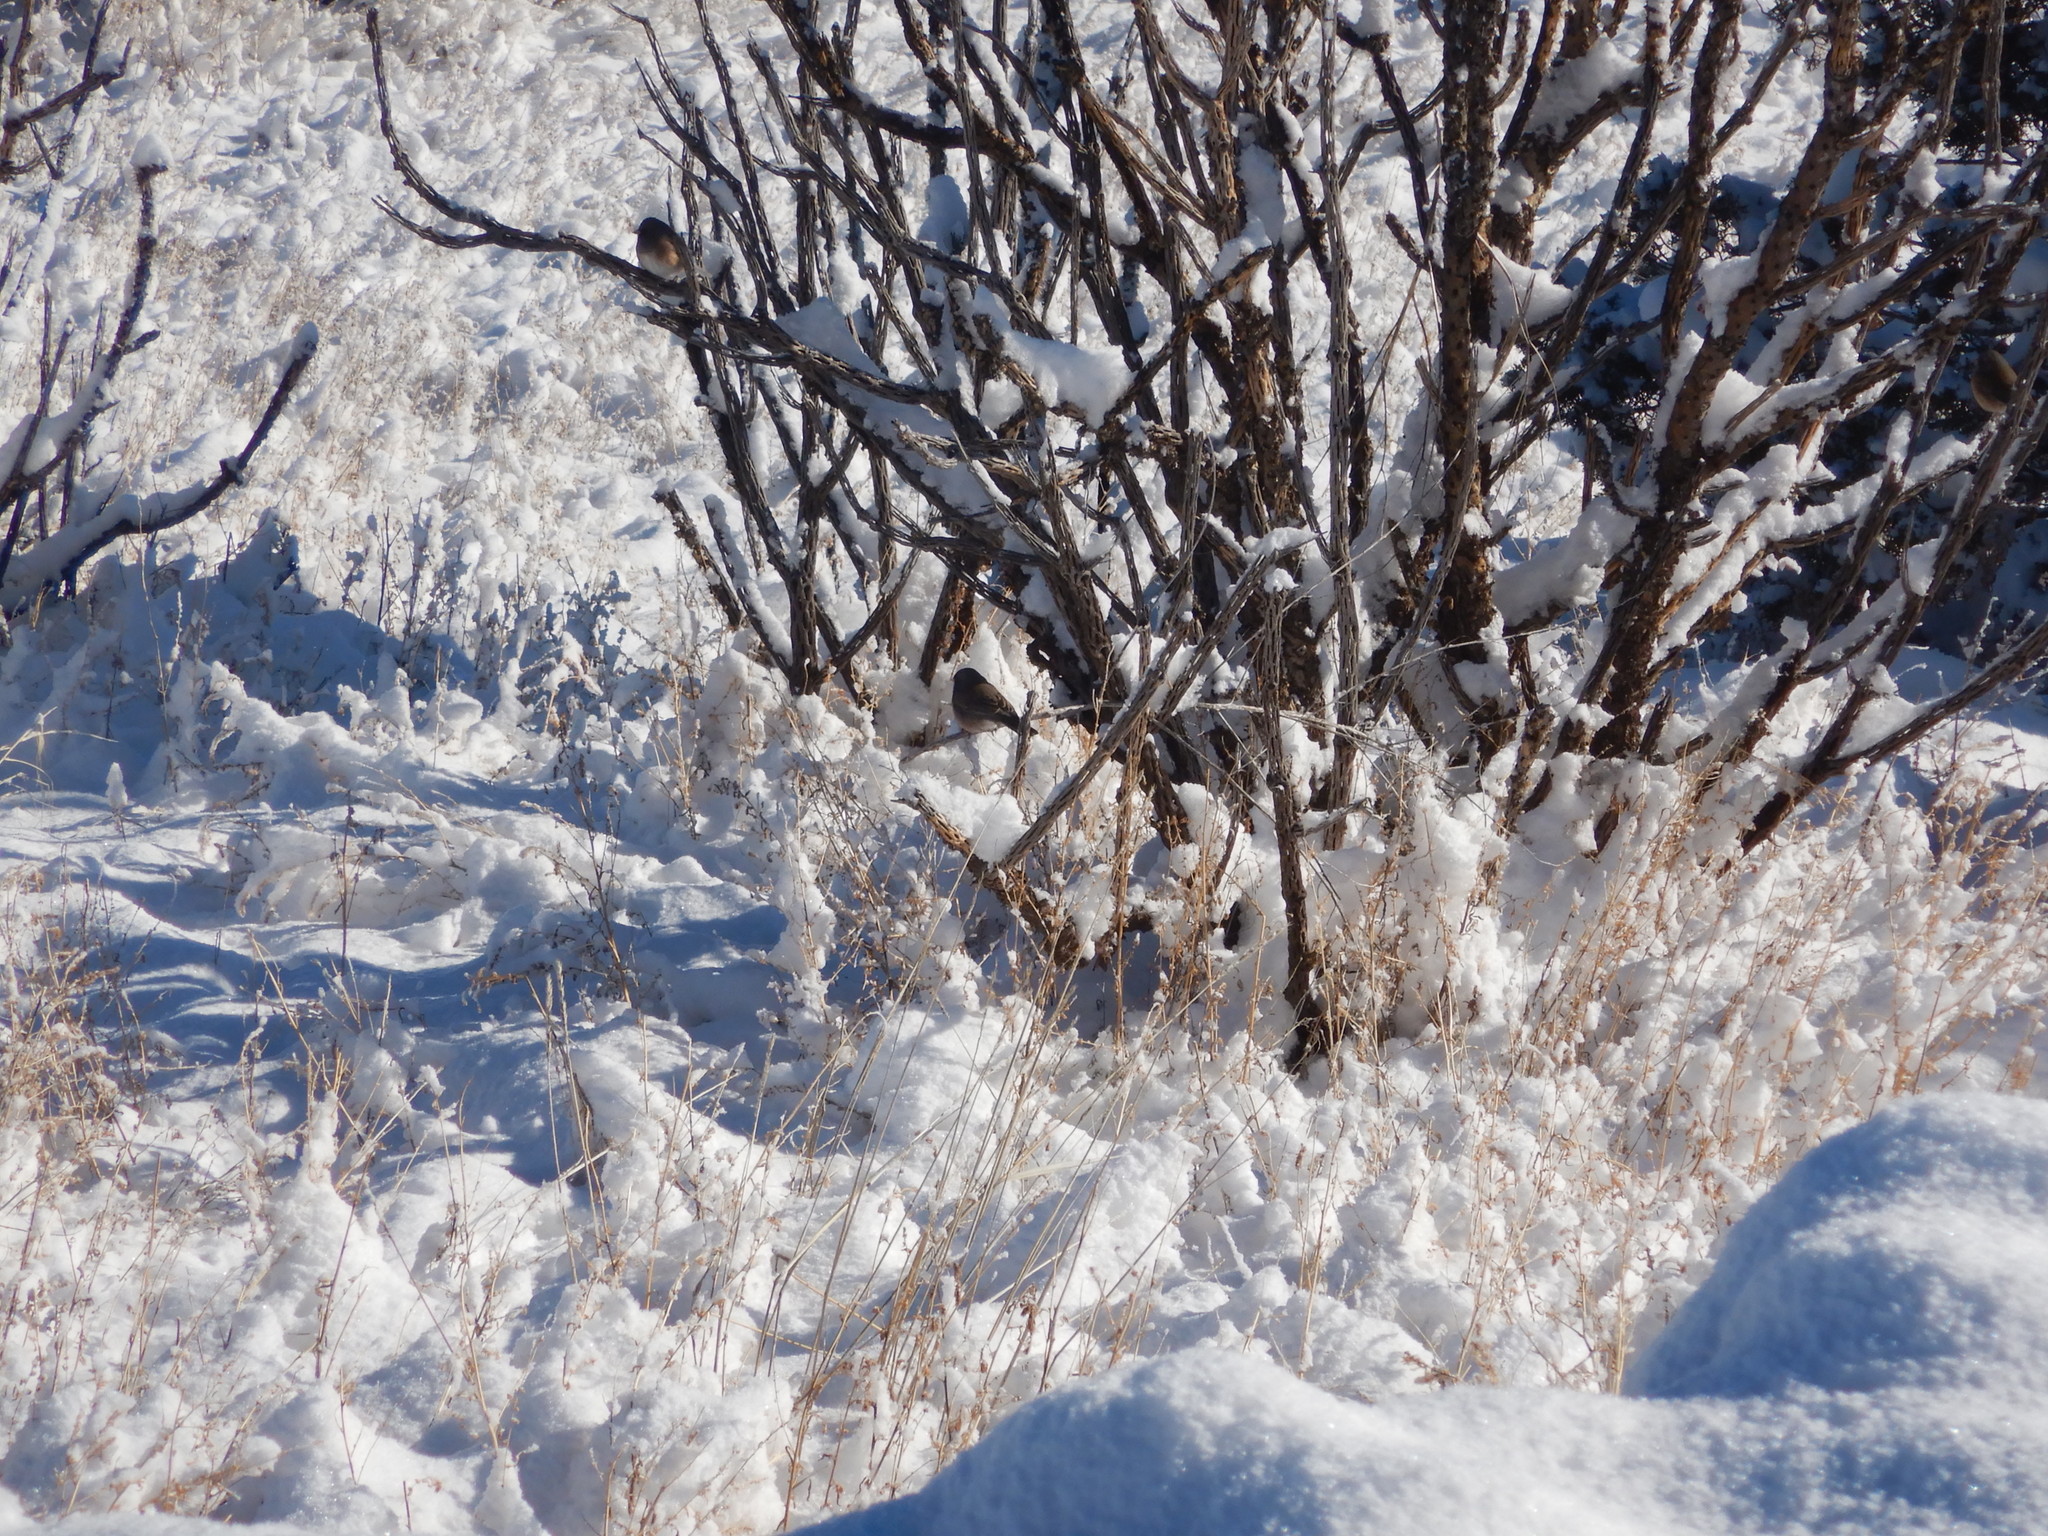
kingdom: Animalia
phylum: Chordata
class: Aves
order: Passeriformes
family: Passerellidae
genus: Junco
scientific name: Junco hyemalis
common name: Dark-eyed junco
